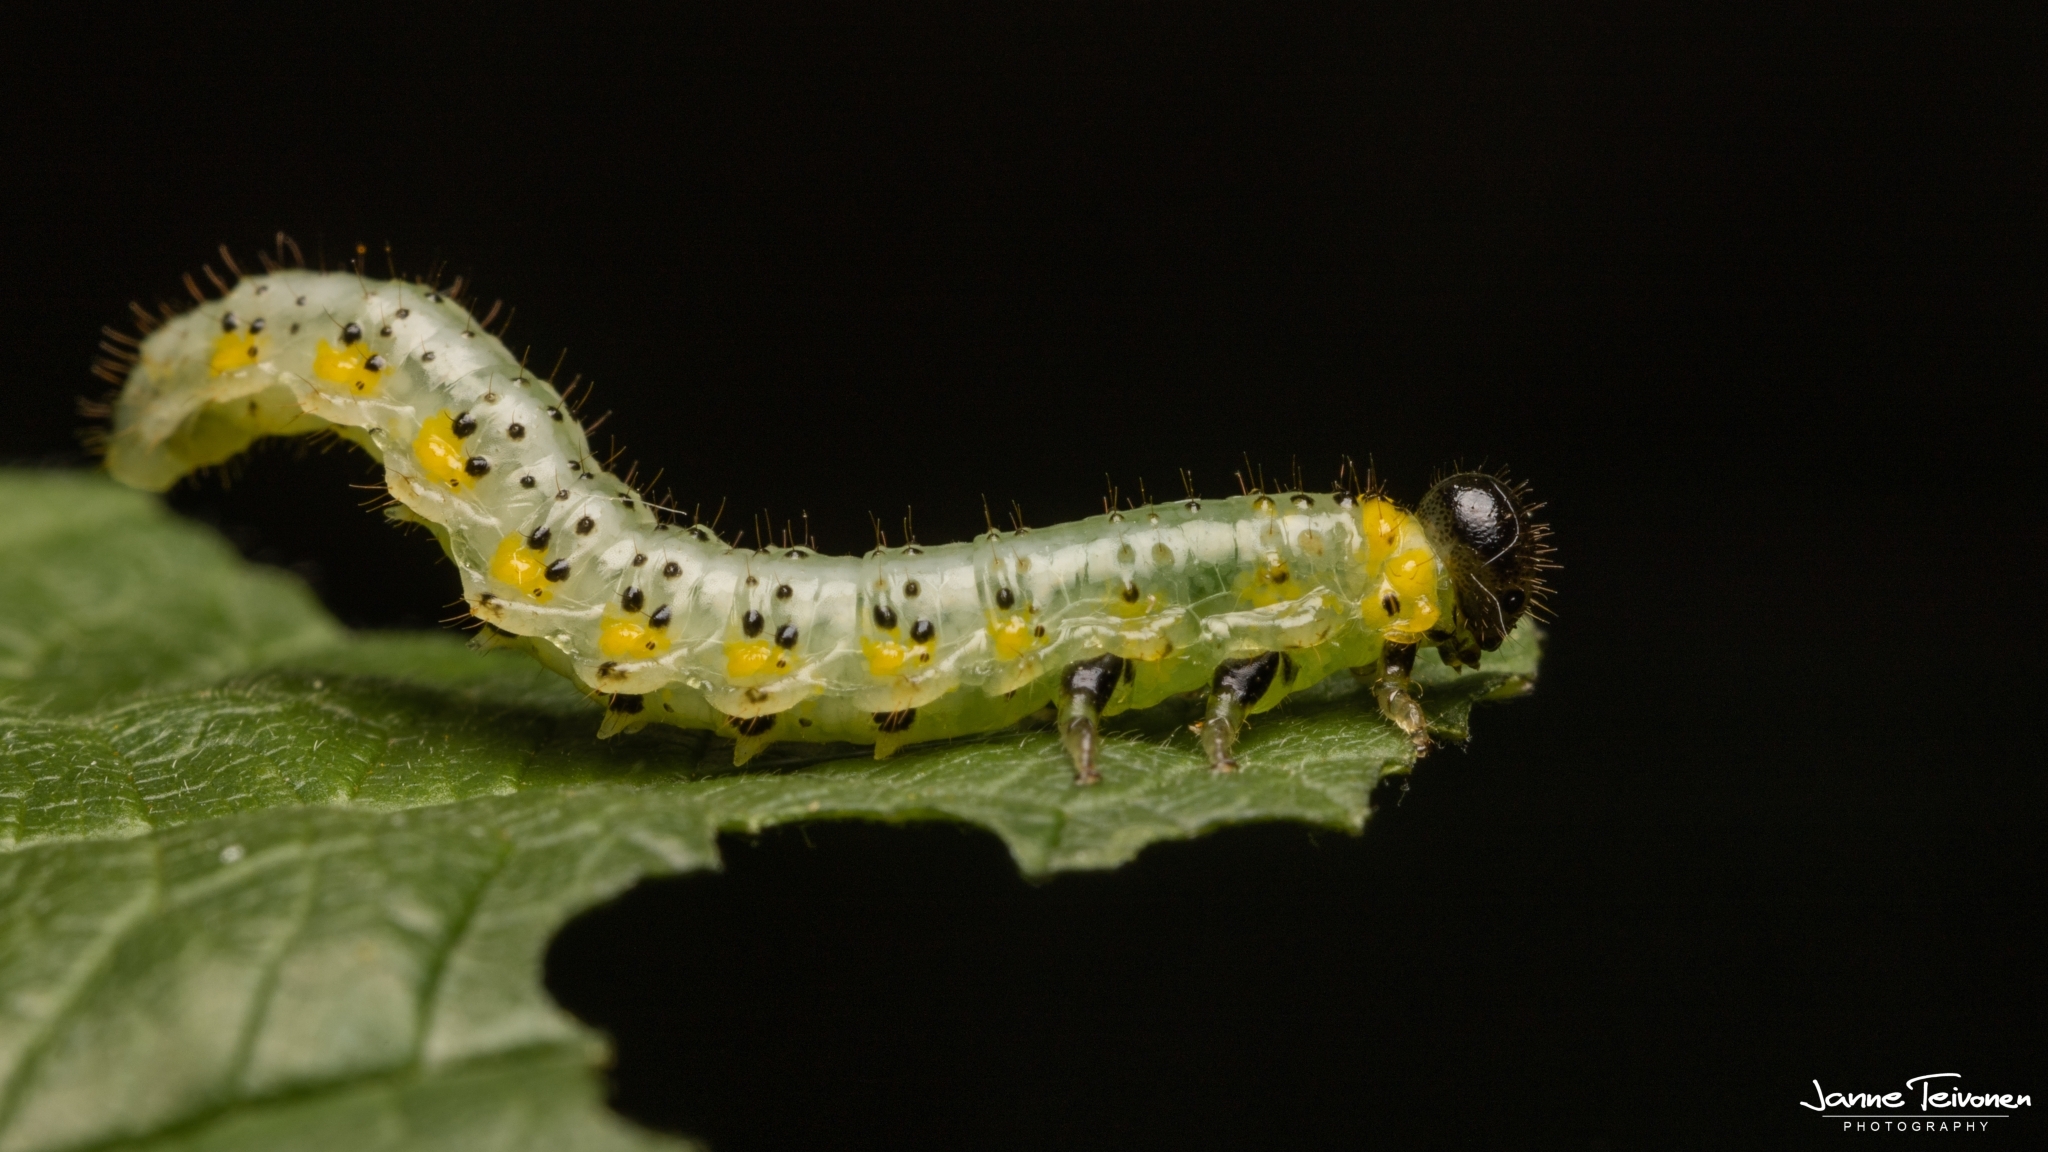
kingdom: Animalia
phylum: Arthropoda
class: Insecta
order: Hymenoptera
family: Argidae
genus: Arge
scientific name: Arge gracilicornis
